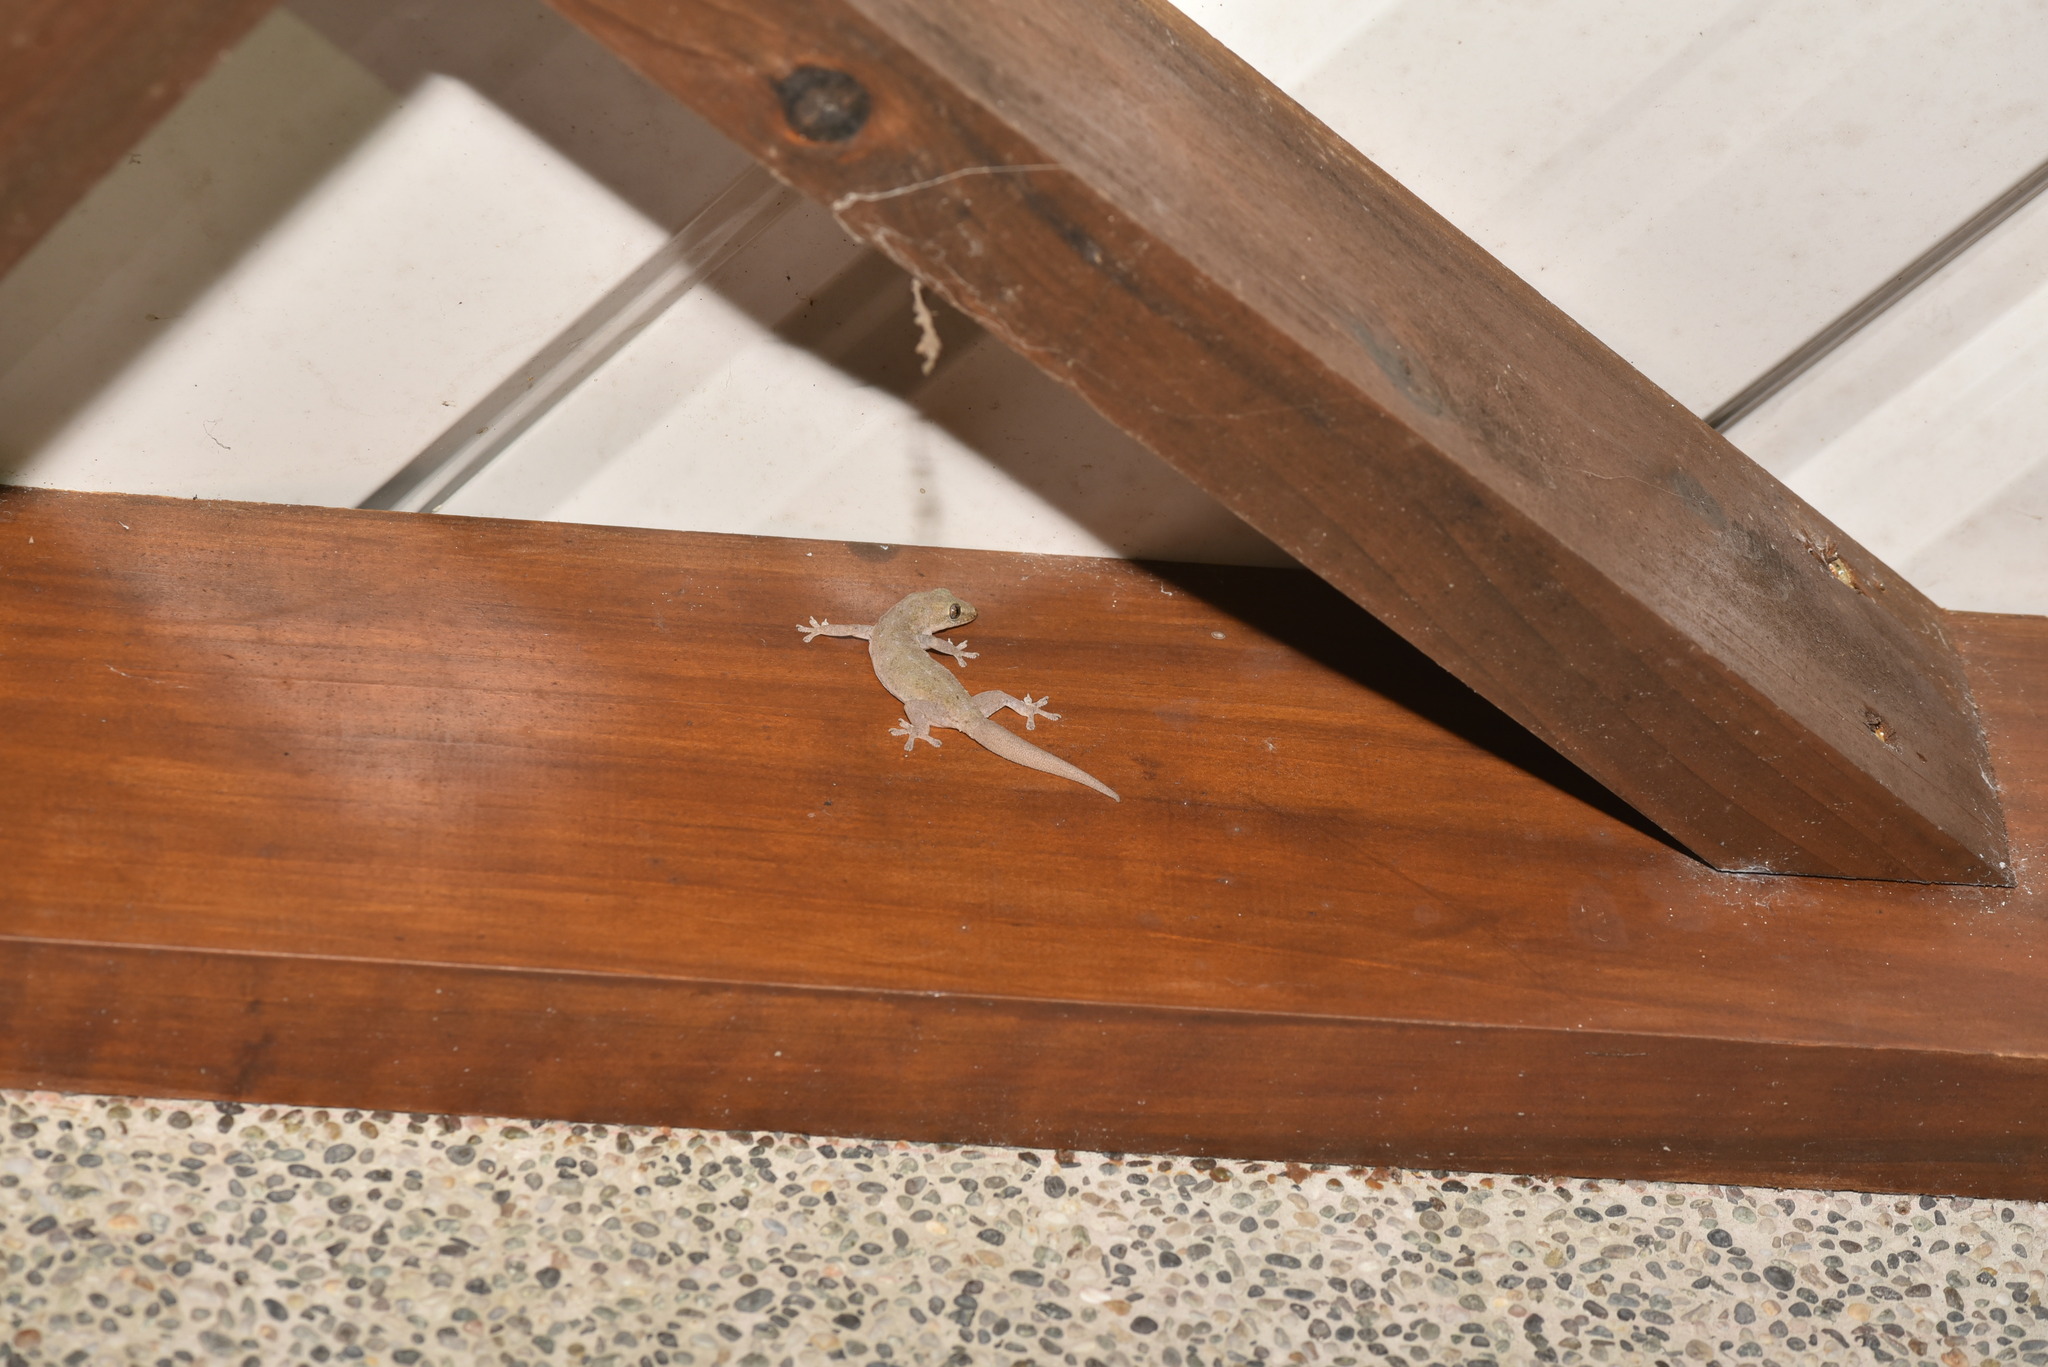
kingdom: Animalia
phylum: Chordata
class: Squamata
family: Gekkonidae
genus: Hemidactylus
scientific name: Hemidactylus frenatus
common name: Common house gecko
